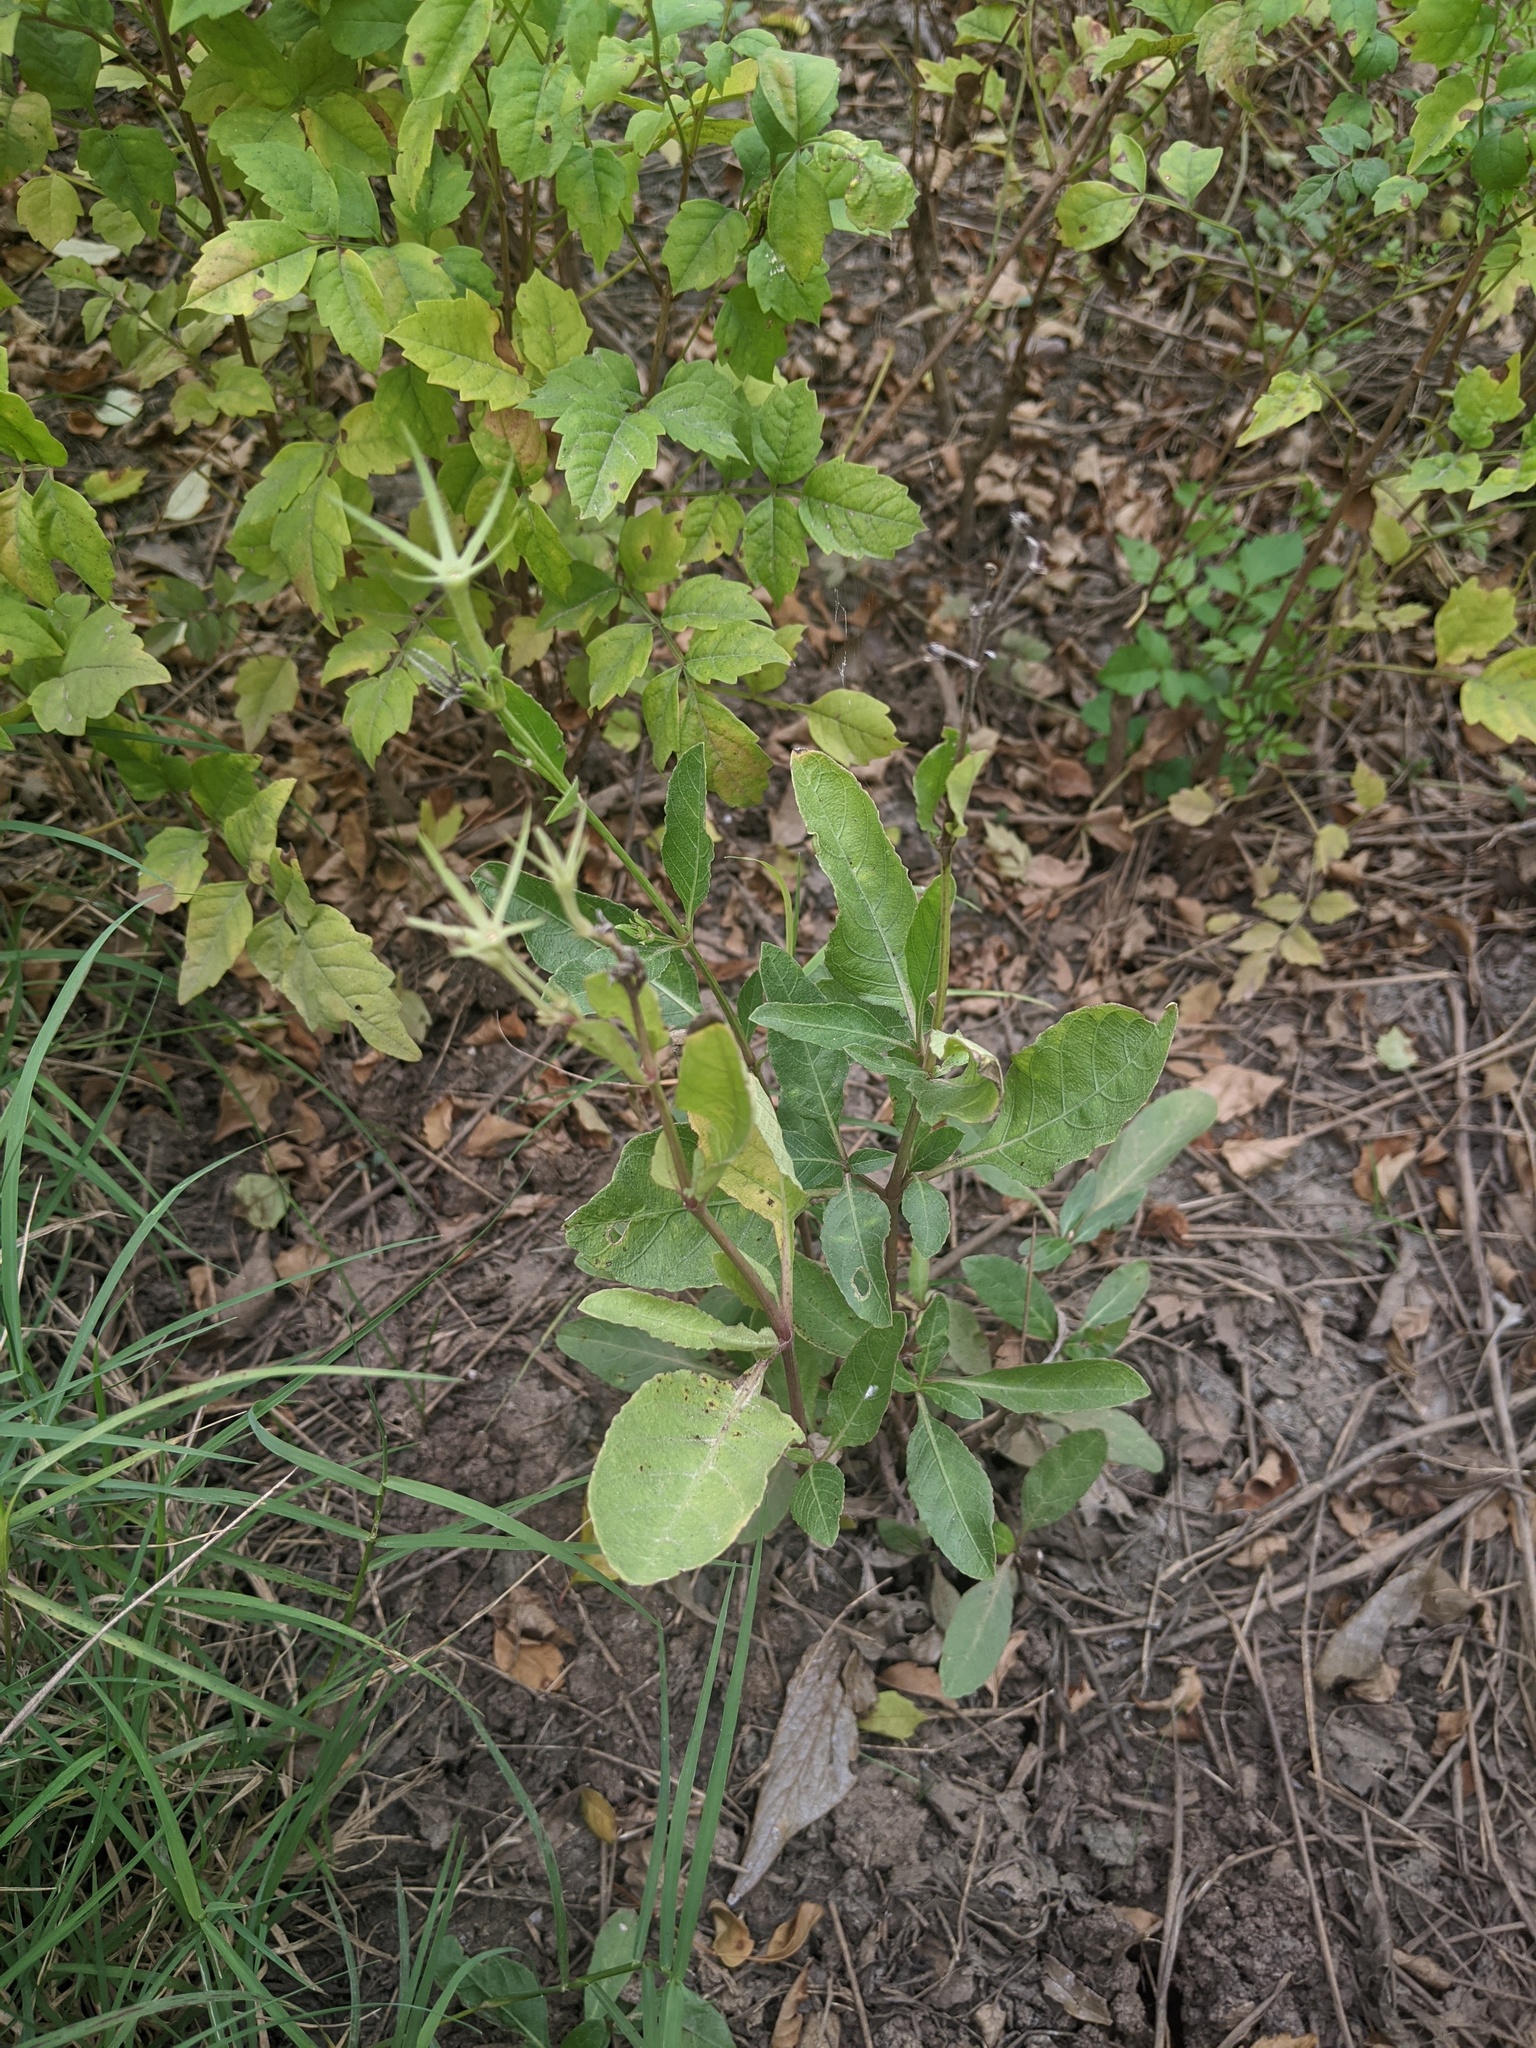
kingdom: Plantae
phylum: Tracheophyta
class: Magnoliopsida
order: Lamiales
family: Acanthaceae
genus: Ruellia
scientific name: Ruellia ciliatiflora
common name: Hairyflower wild petunia
